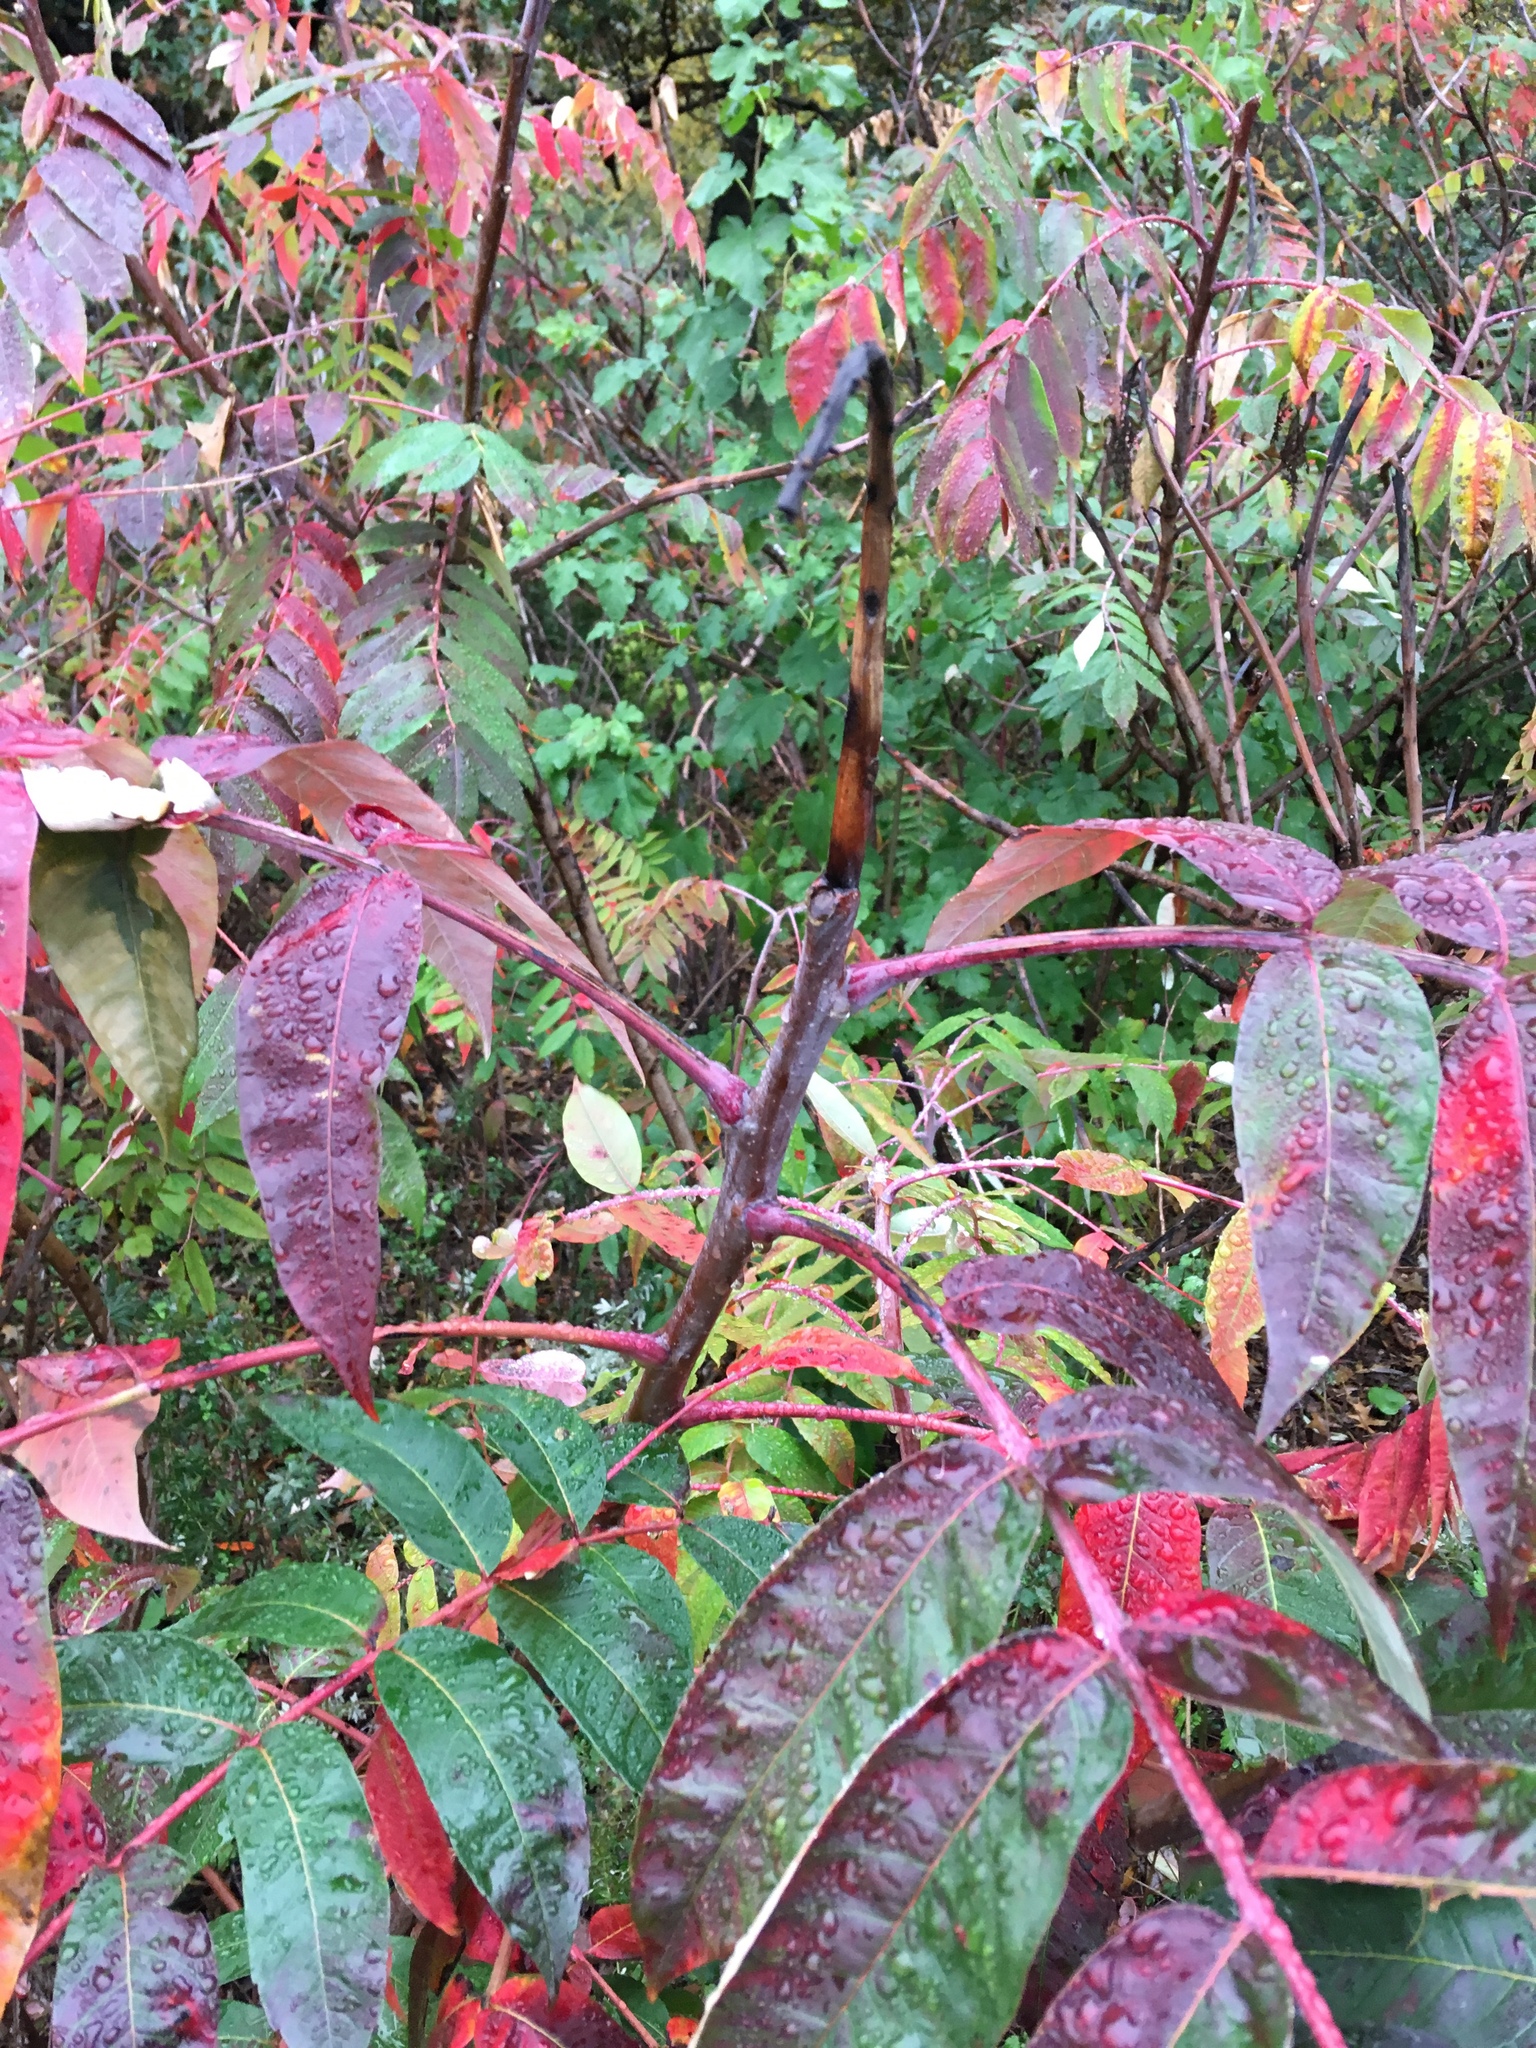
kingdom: Plantae
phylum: Tracheophyta
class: Magnoliopsida
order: Sapindales
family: Anacardiaceae
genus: Rhus
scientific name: Rhus glabra
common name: Scarlet sumac
